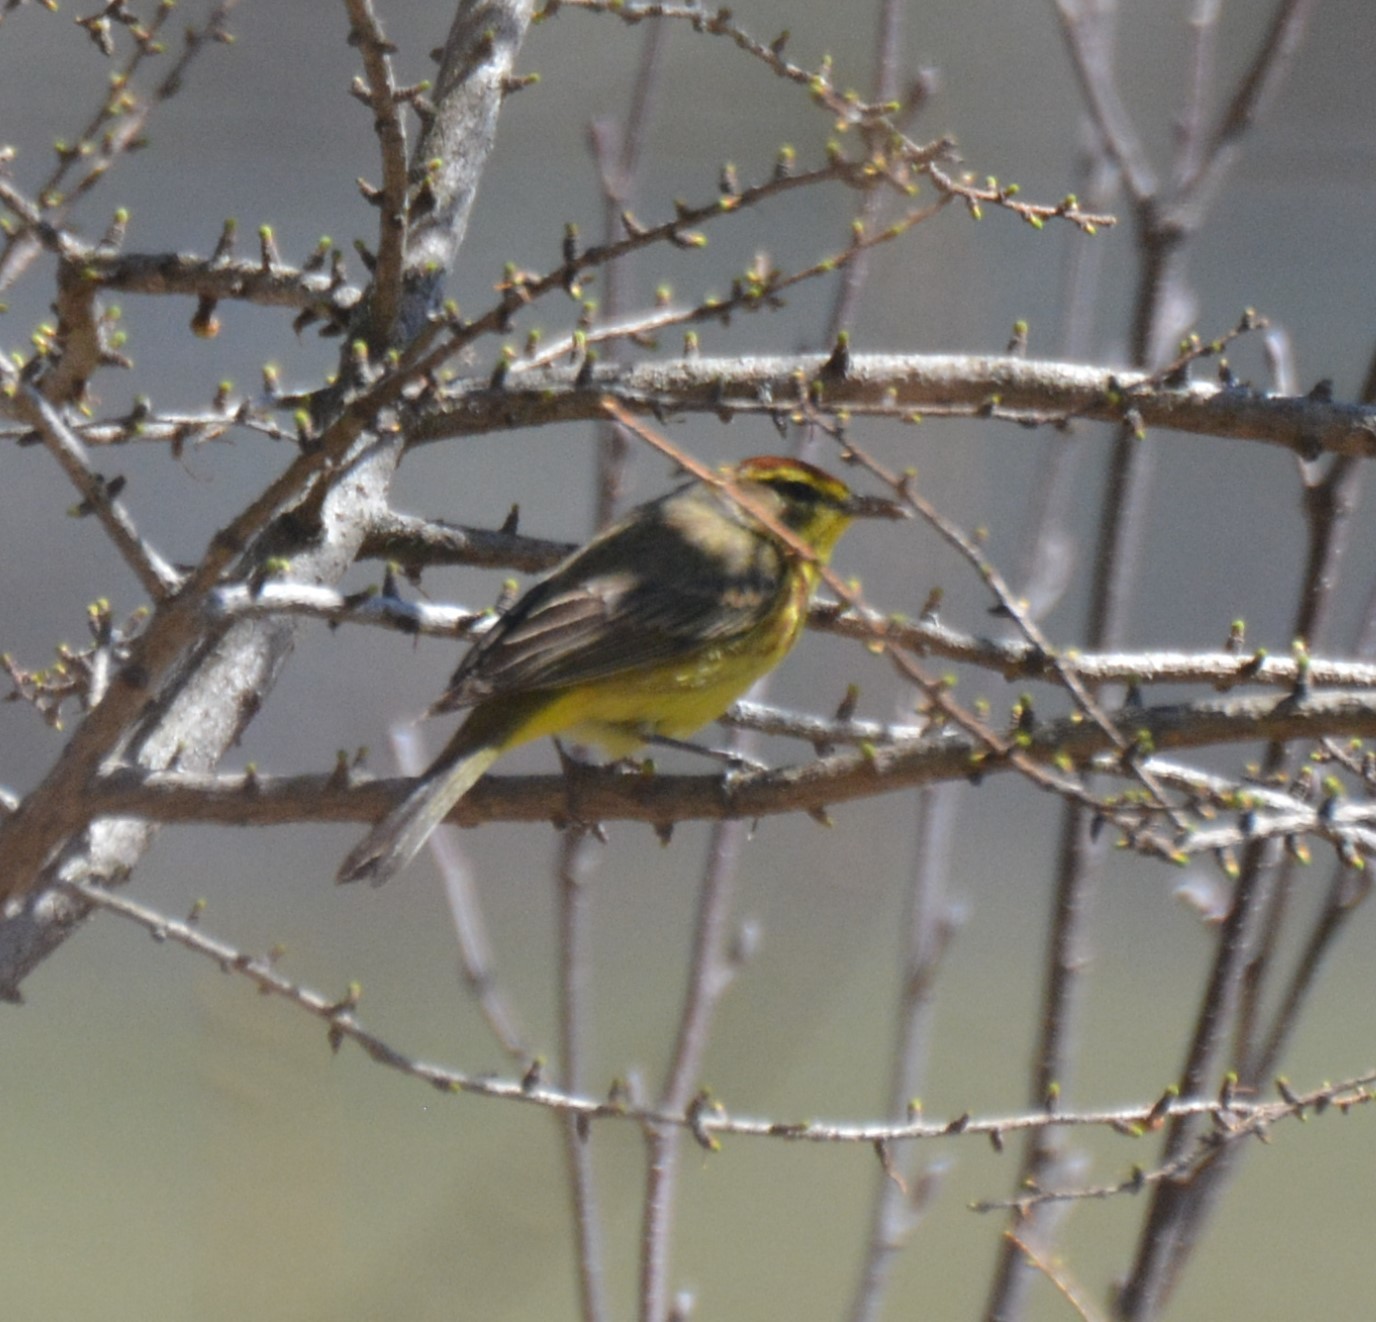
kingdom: Animalia
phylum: Chordata
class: Aves
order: Passeriformes
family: Parulidae
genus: Setophaga
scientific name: Setophaga palmarum
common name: Palm warbler
